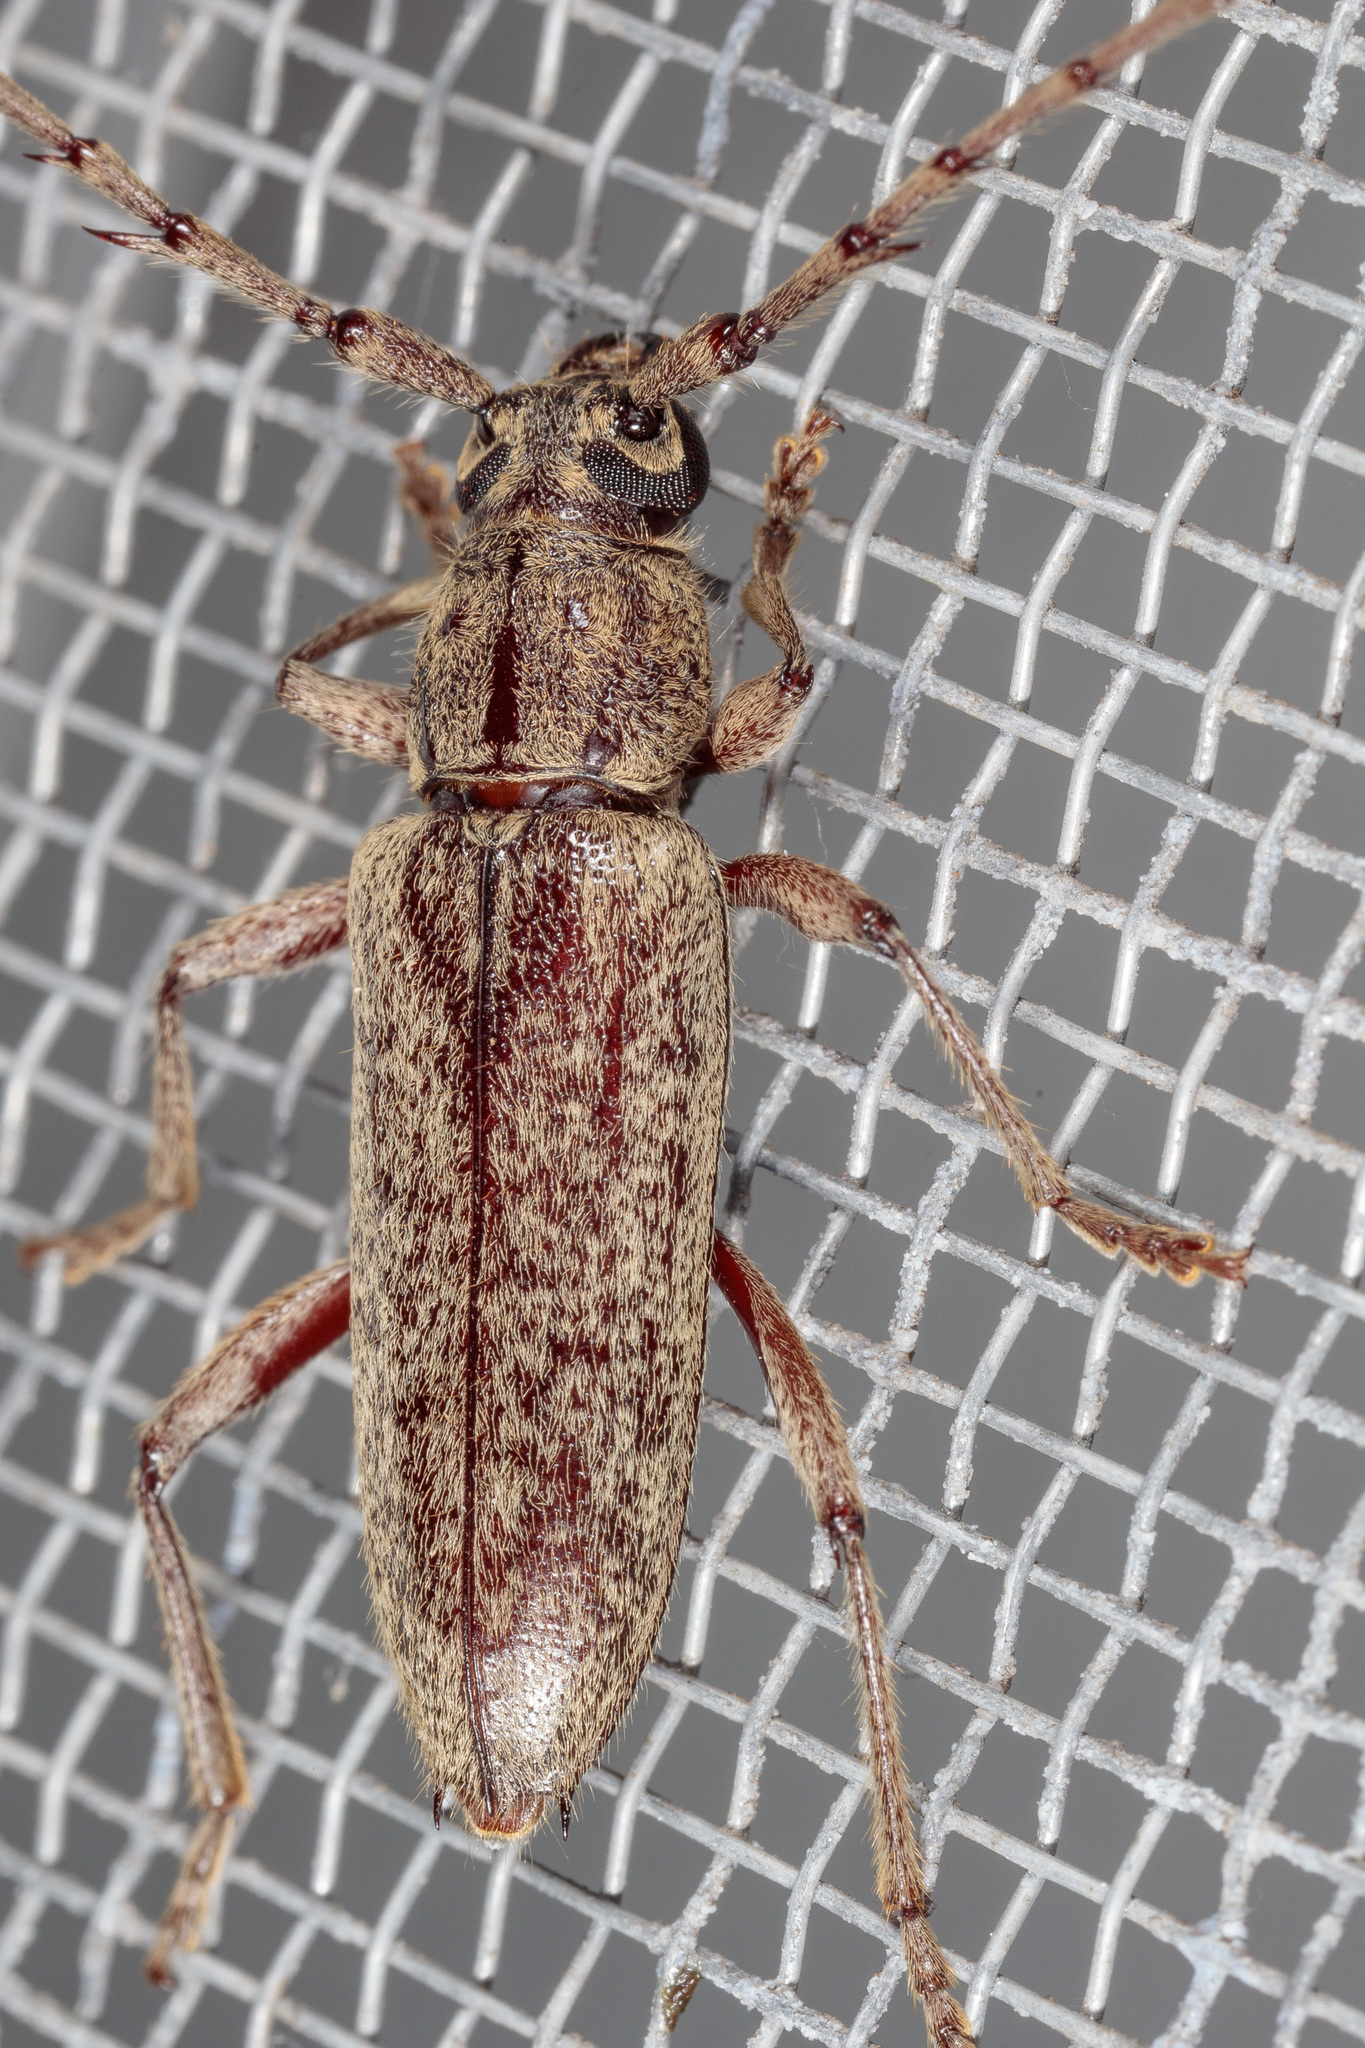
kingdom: Animalia
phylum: Arthropoda
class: Insecta
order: Coleoptera
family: Cerambycidae
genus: Elaphidion
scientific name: Elaphidion mucronatum
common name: Spined oak borer
